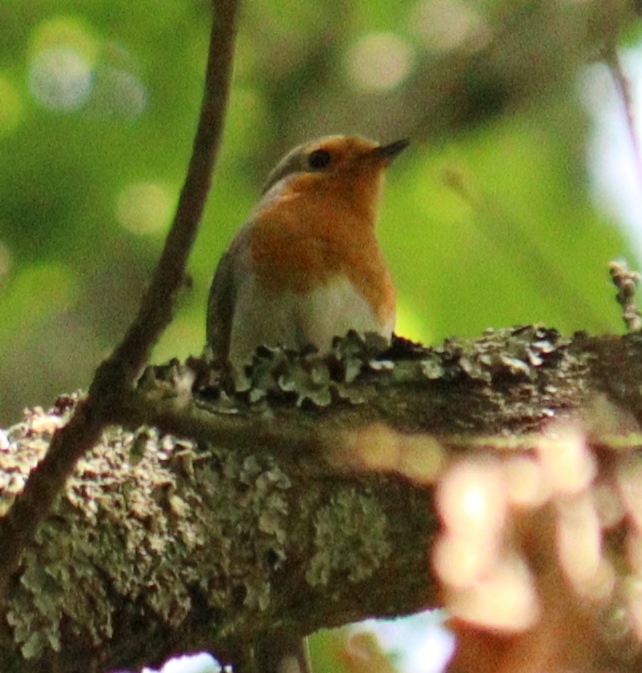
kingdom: Animalia
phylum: Chordata
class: Aves
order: Passeriformes
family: Muscicapidae
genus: Erithacus
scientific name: Erithacus rubecula
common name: European robin
